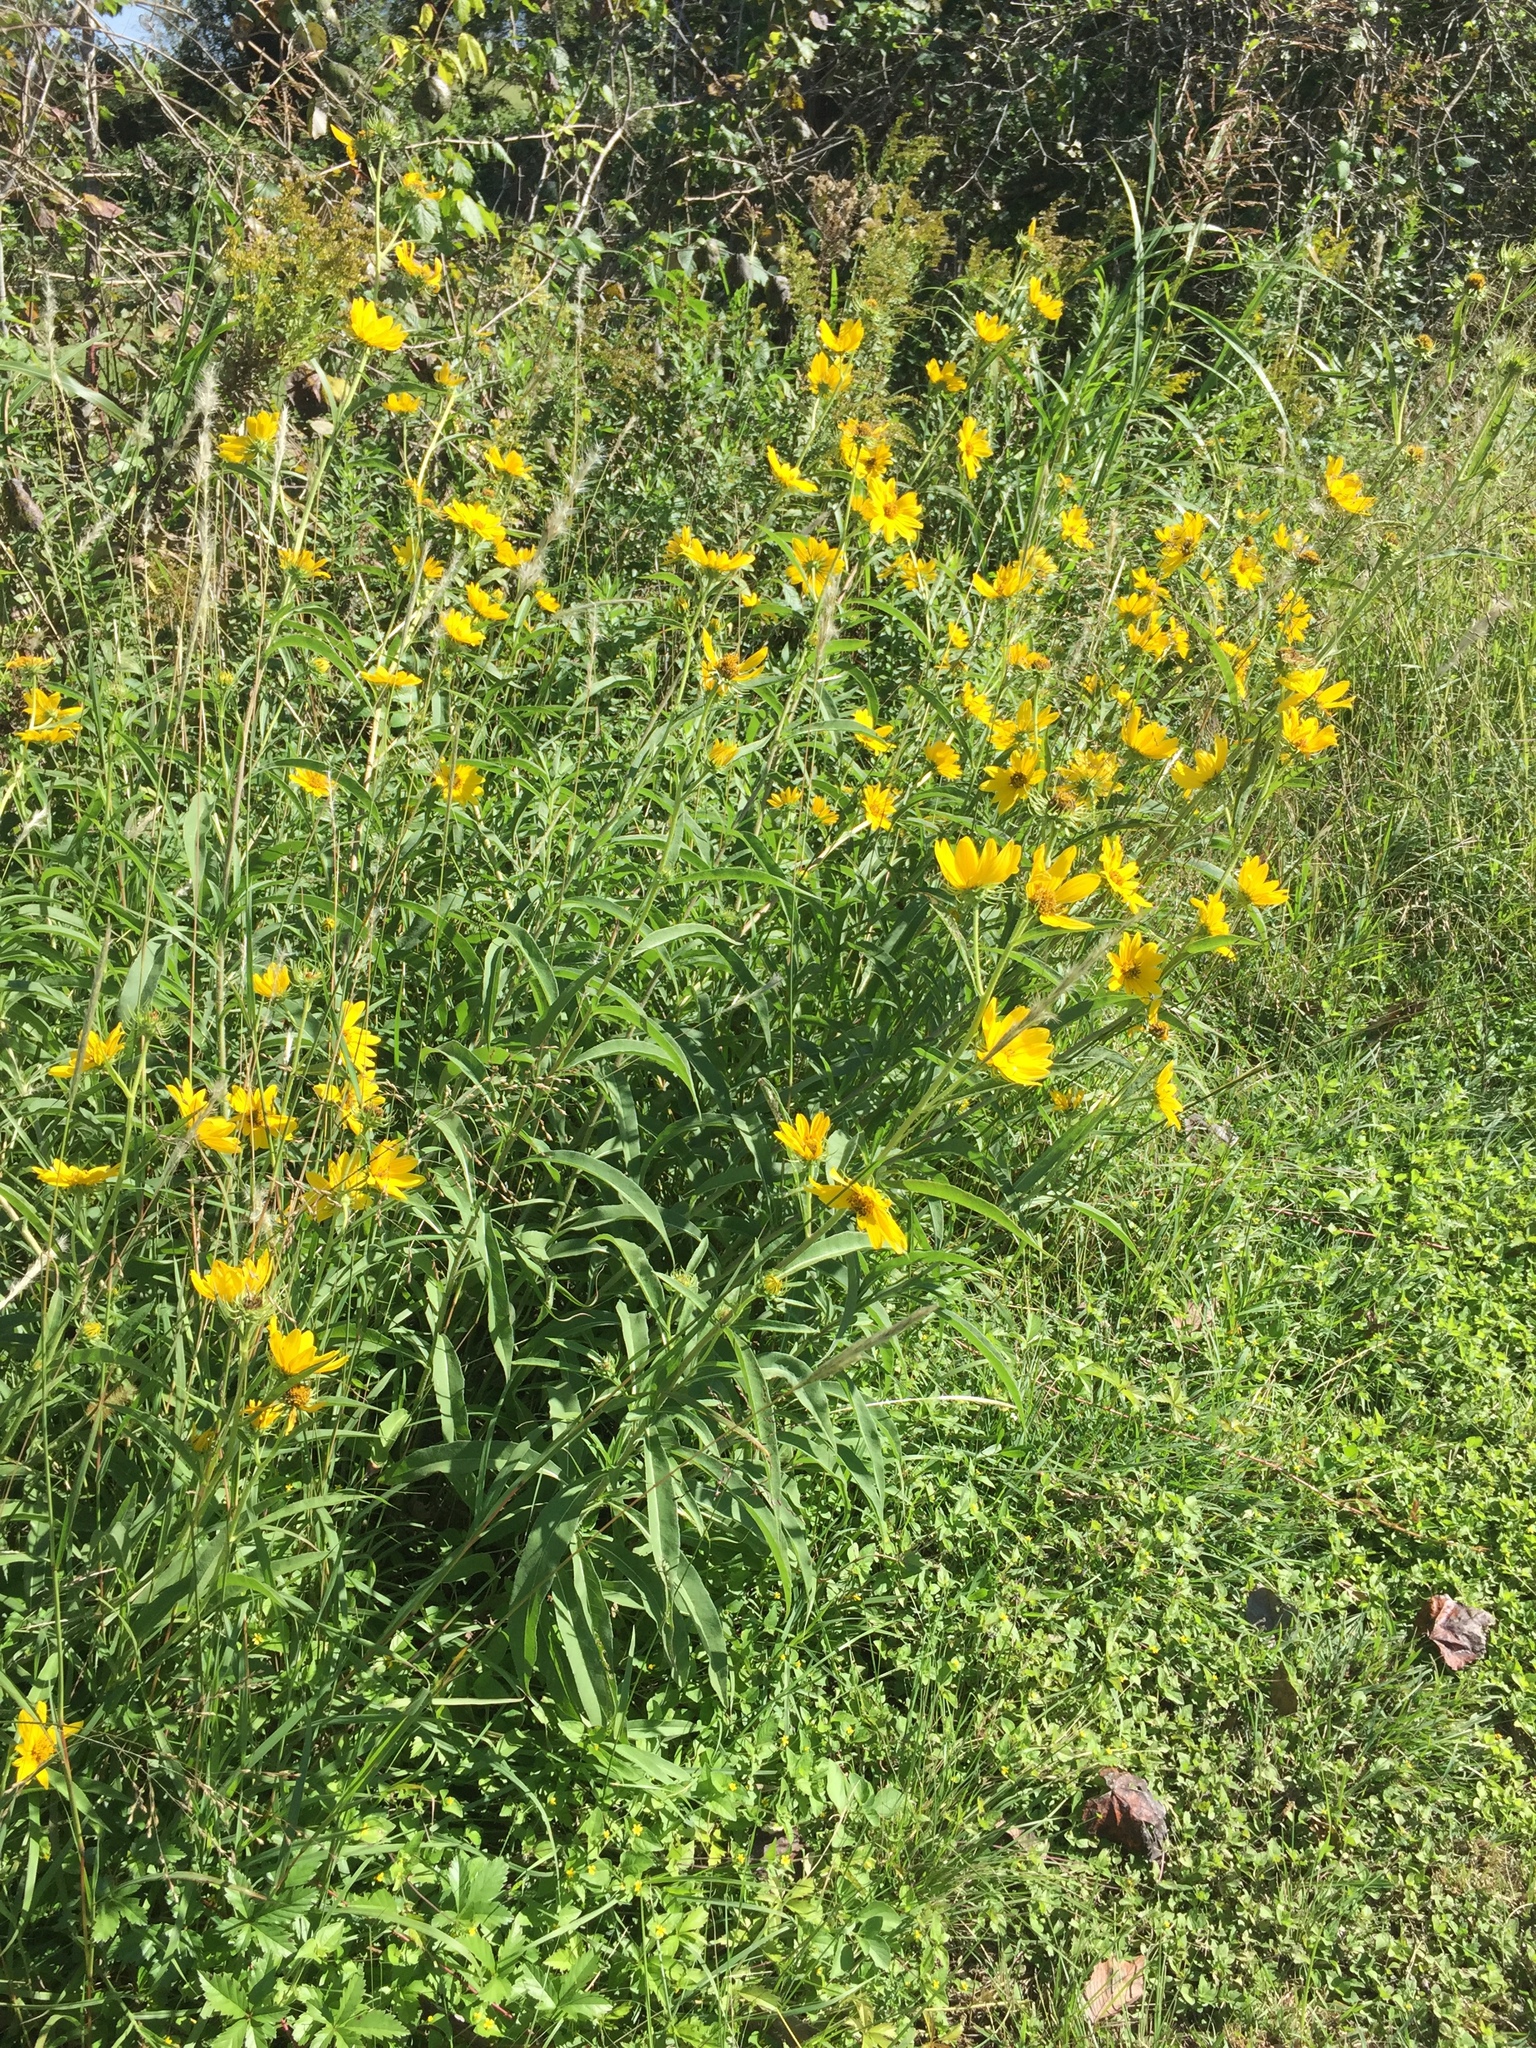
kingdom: Plantae
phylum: Tracheophyta
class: Magnoliopsida
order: Asterales
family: Asteraceae
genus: Helianthus
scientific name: Helianthus maximiliani
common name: Maximilian's sunflower
